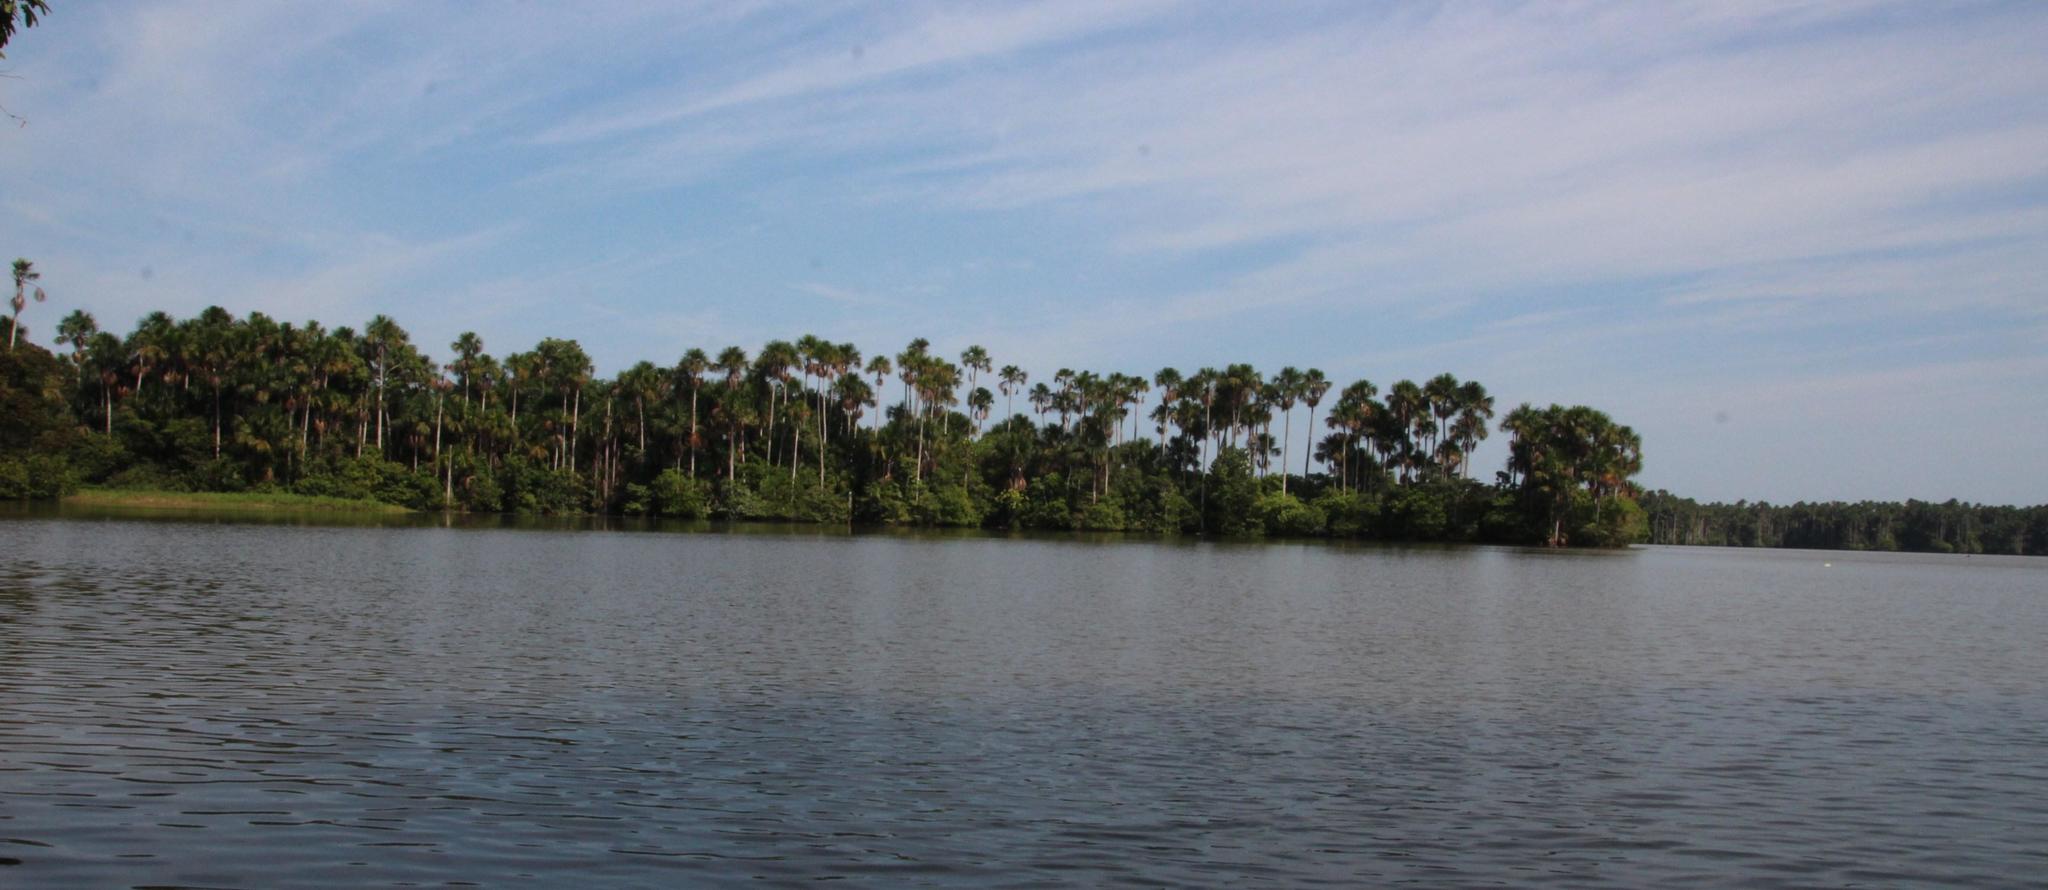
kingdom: Plantae
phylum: Tracheophyta
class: Liliopsida
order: Arecales
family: Arecaceae
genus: Mauritia
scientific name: Mauritia flexuosa
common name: Tree-of-life
